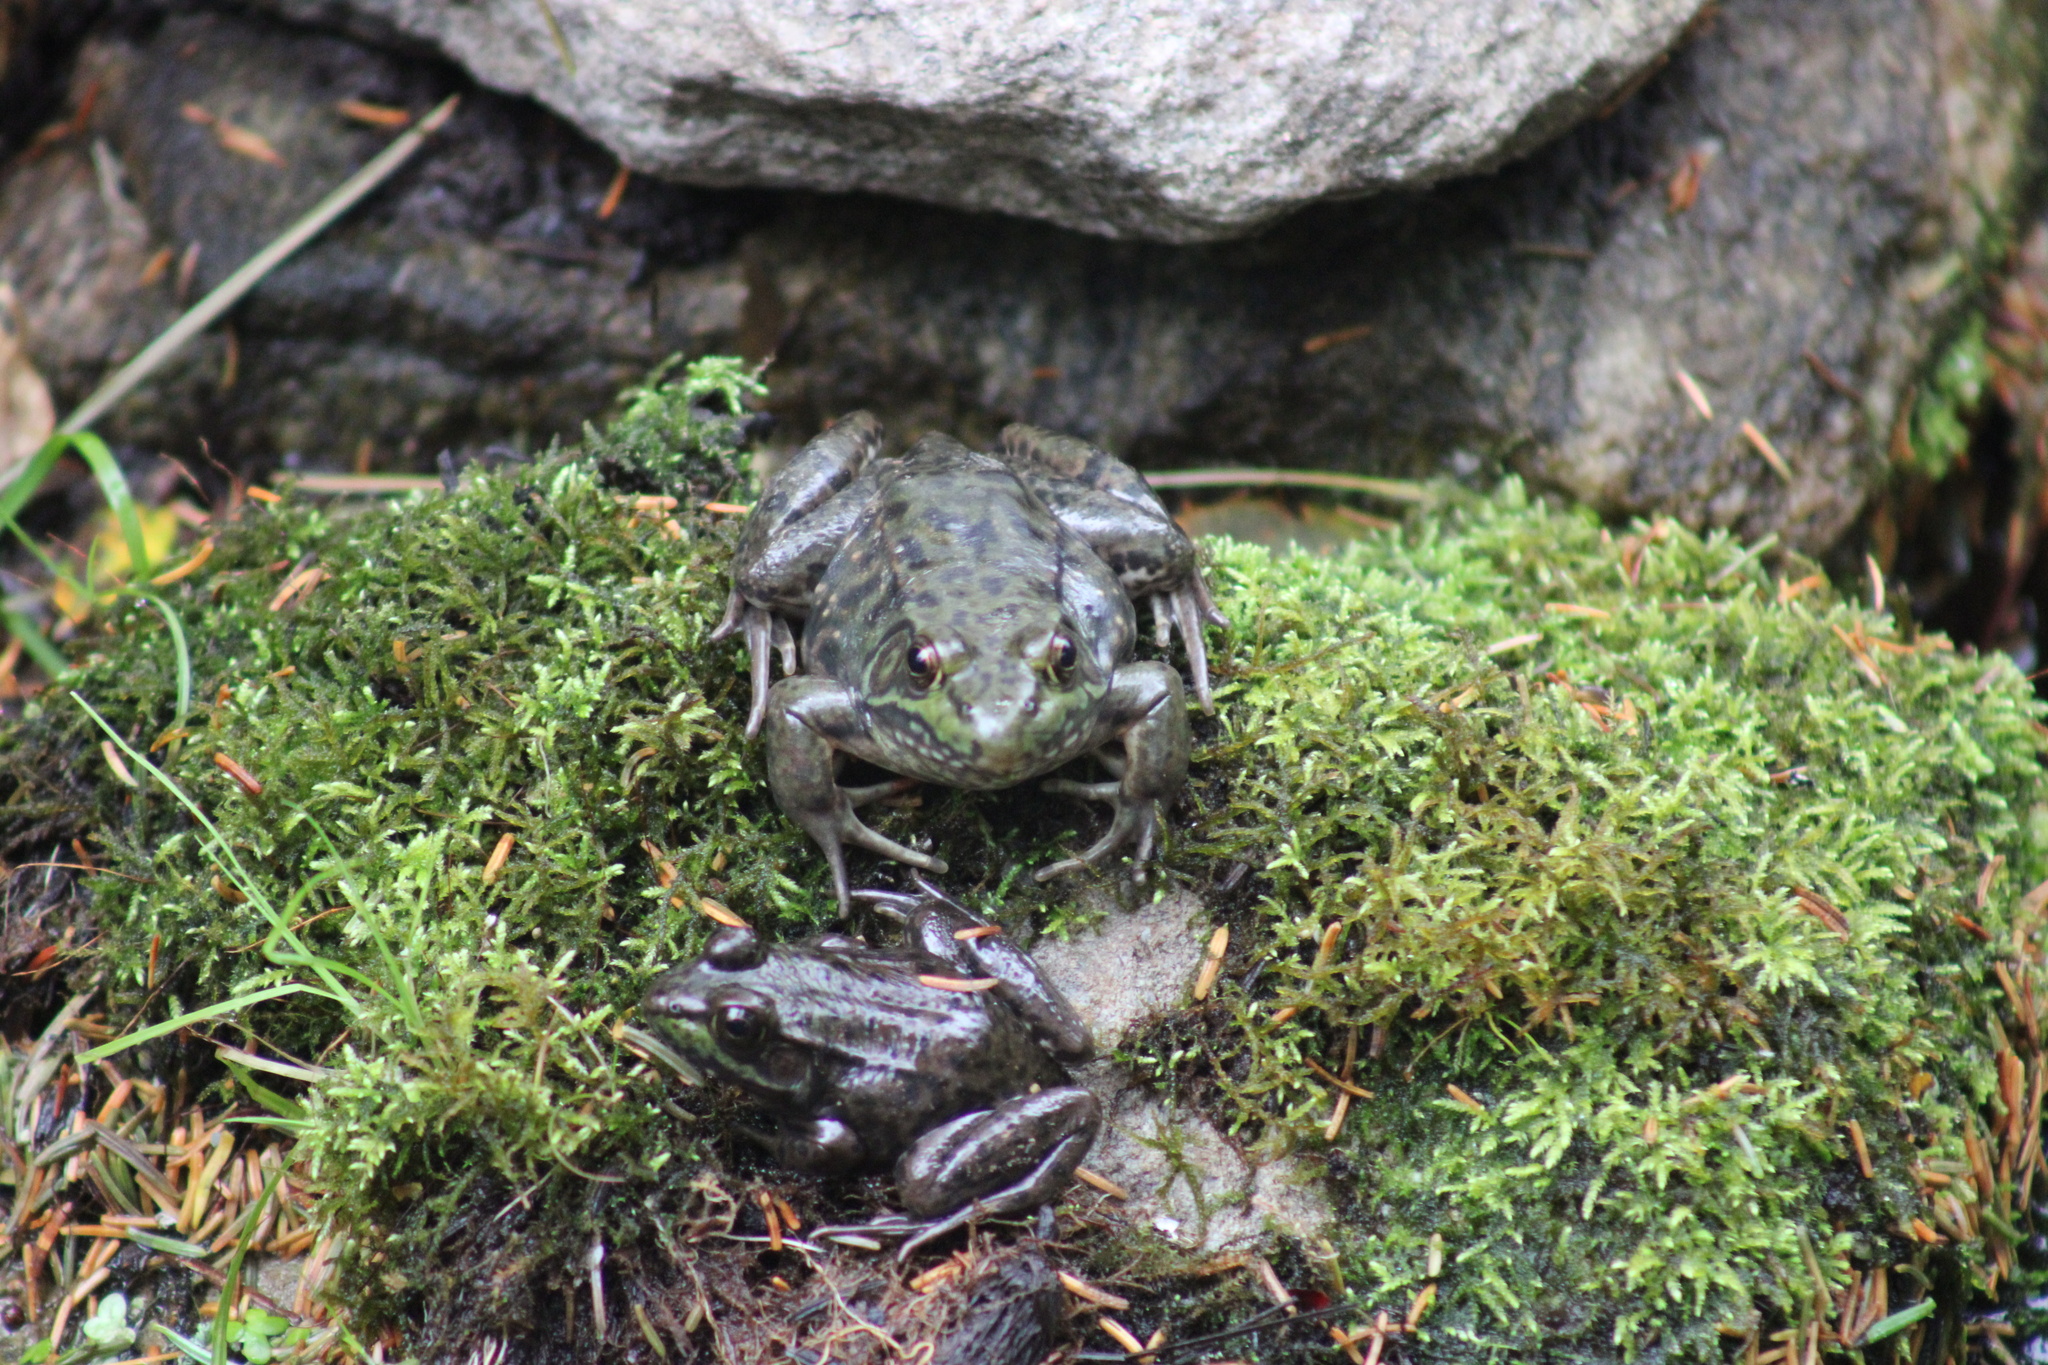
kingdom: Animalia
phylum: Chordata
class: Amphibia
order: Anura
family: Ranidae
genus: Lithobates
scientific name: Lithobates clamitans
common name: Green frog
